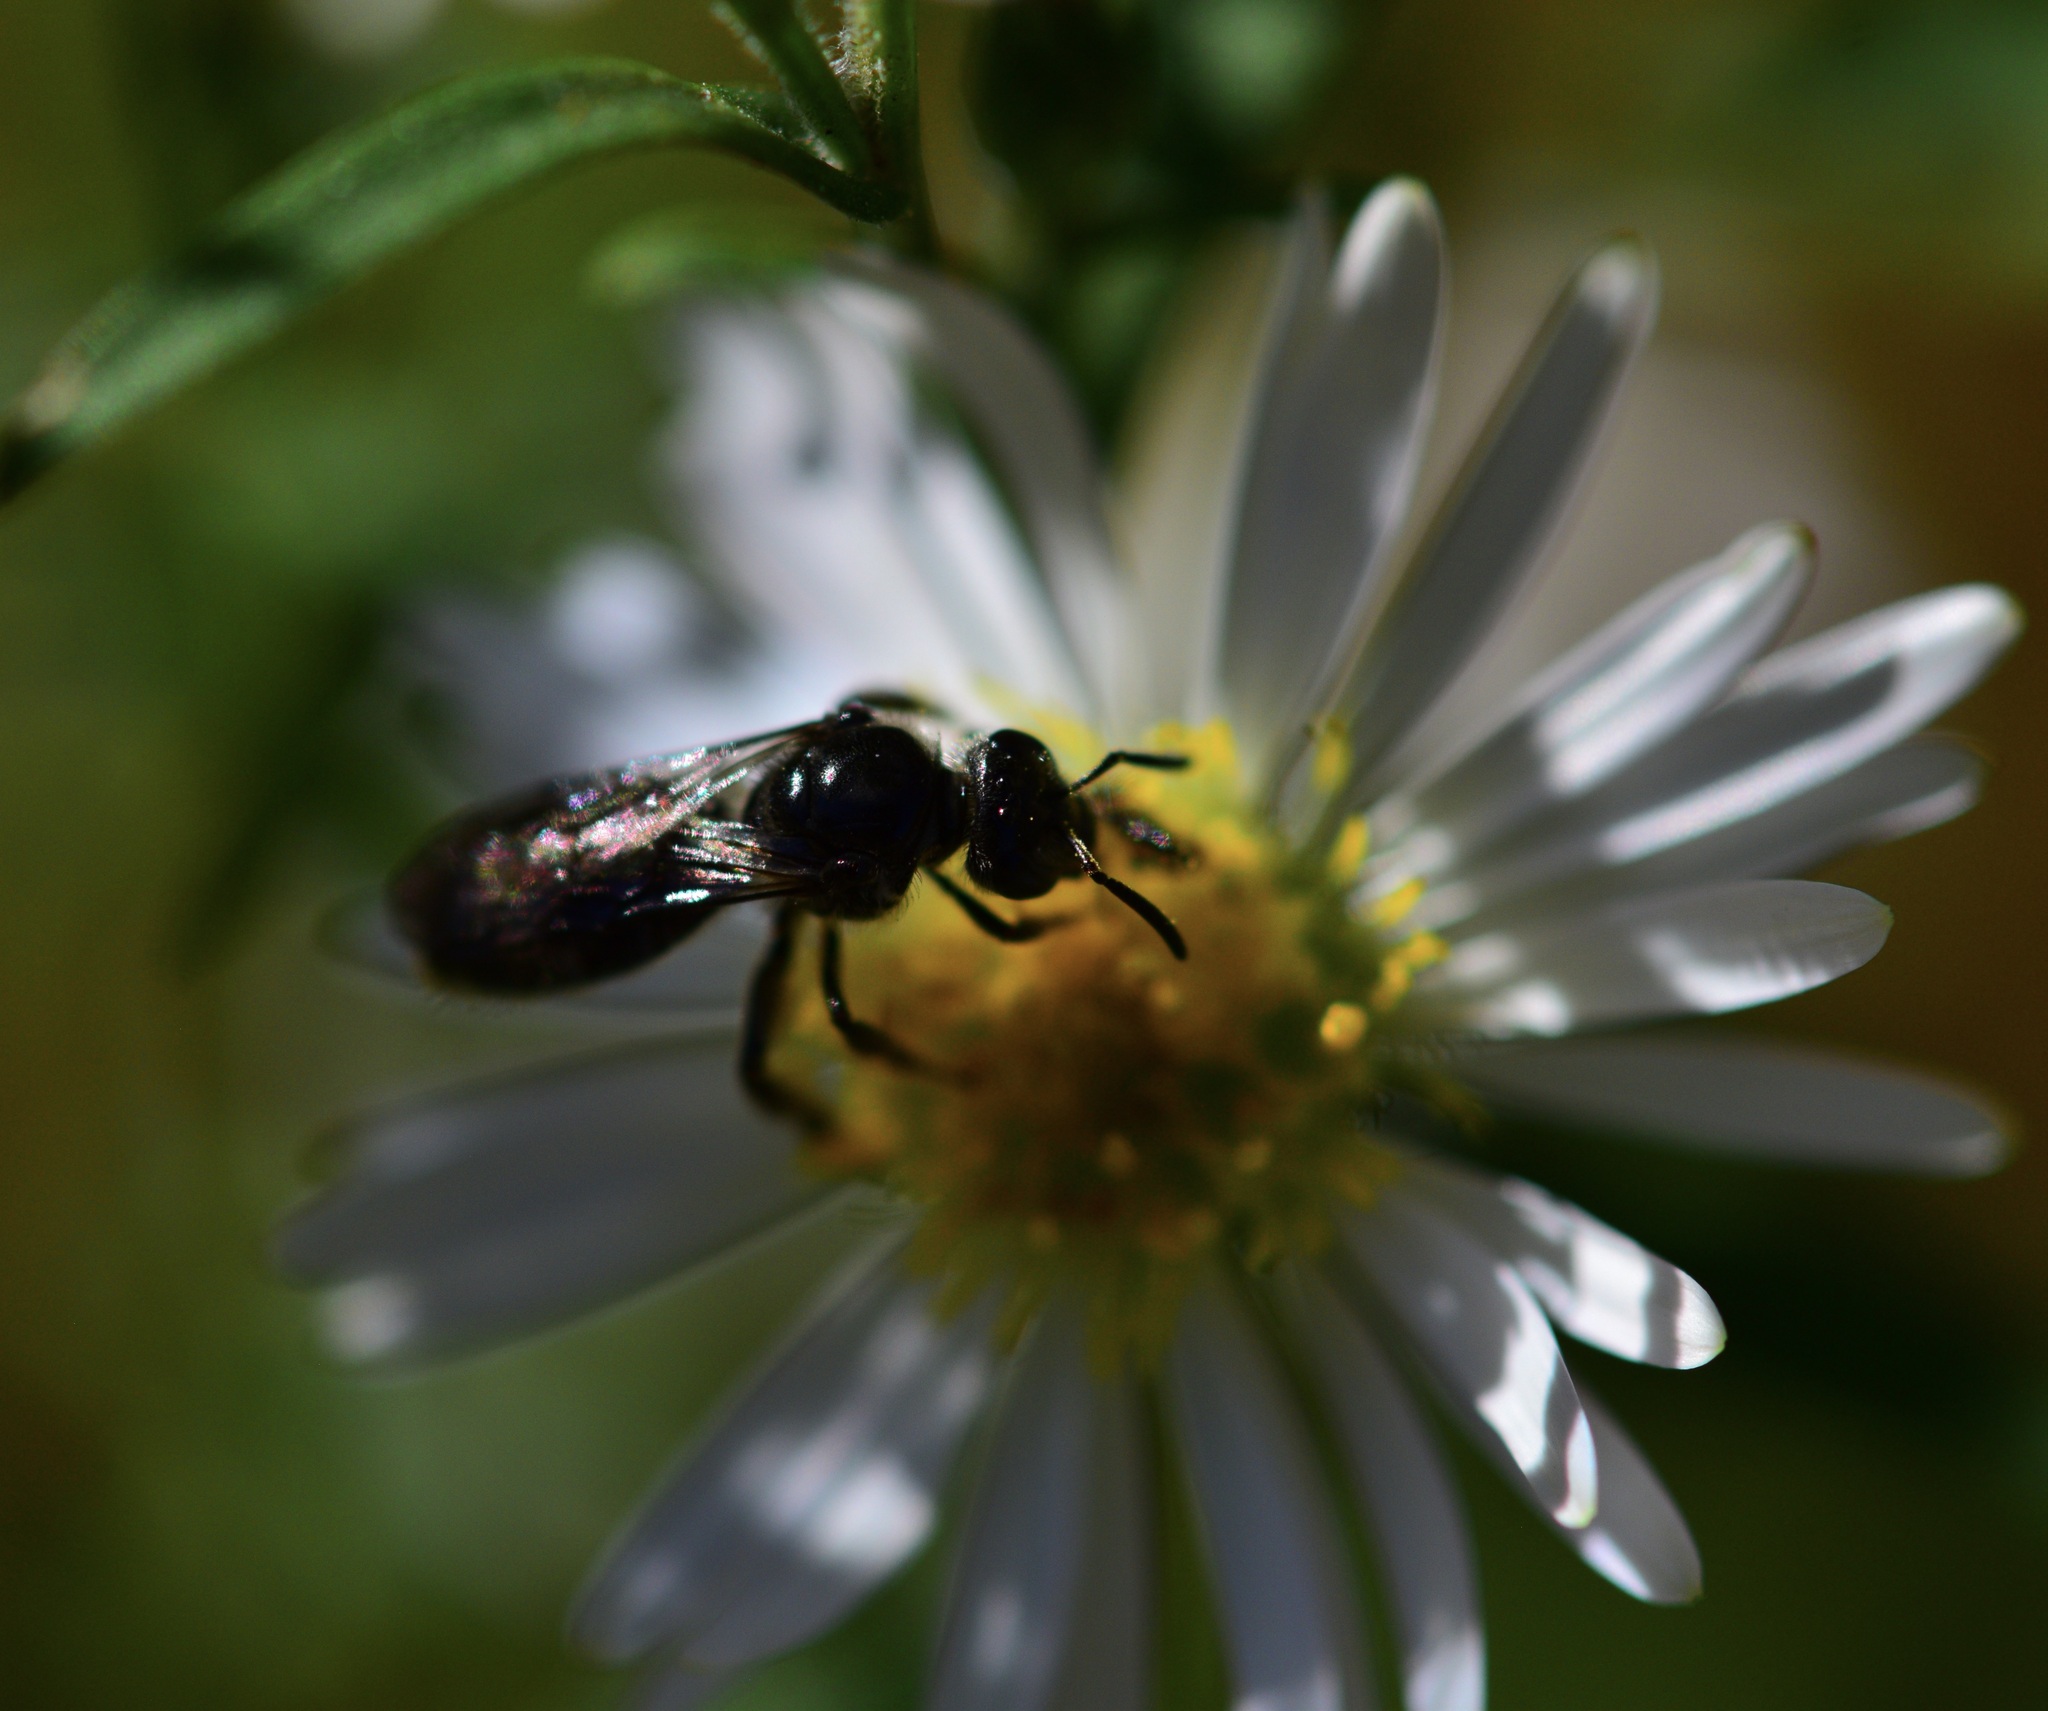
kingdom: Animalia
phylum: Arthropoda
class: Insecta
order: Hymenoptera
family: Halictidae
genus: Lasioglossum
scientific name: Lasioglossum pectinatum
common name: Ground cherry sweat bee
